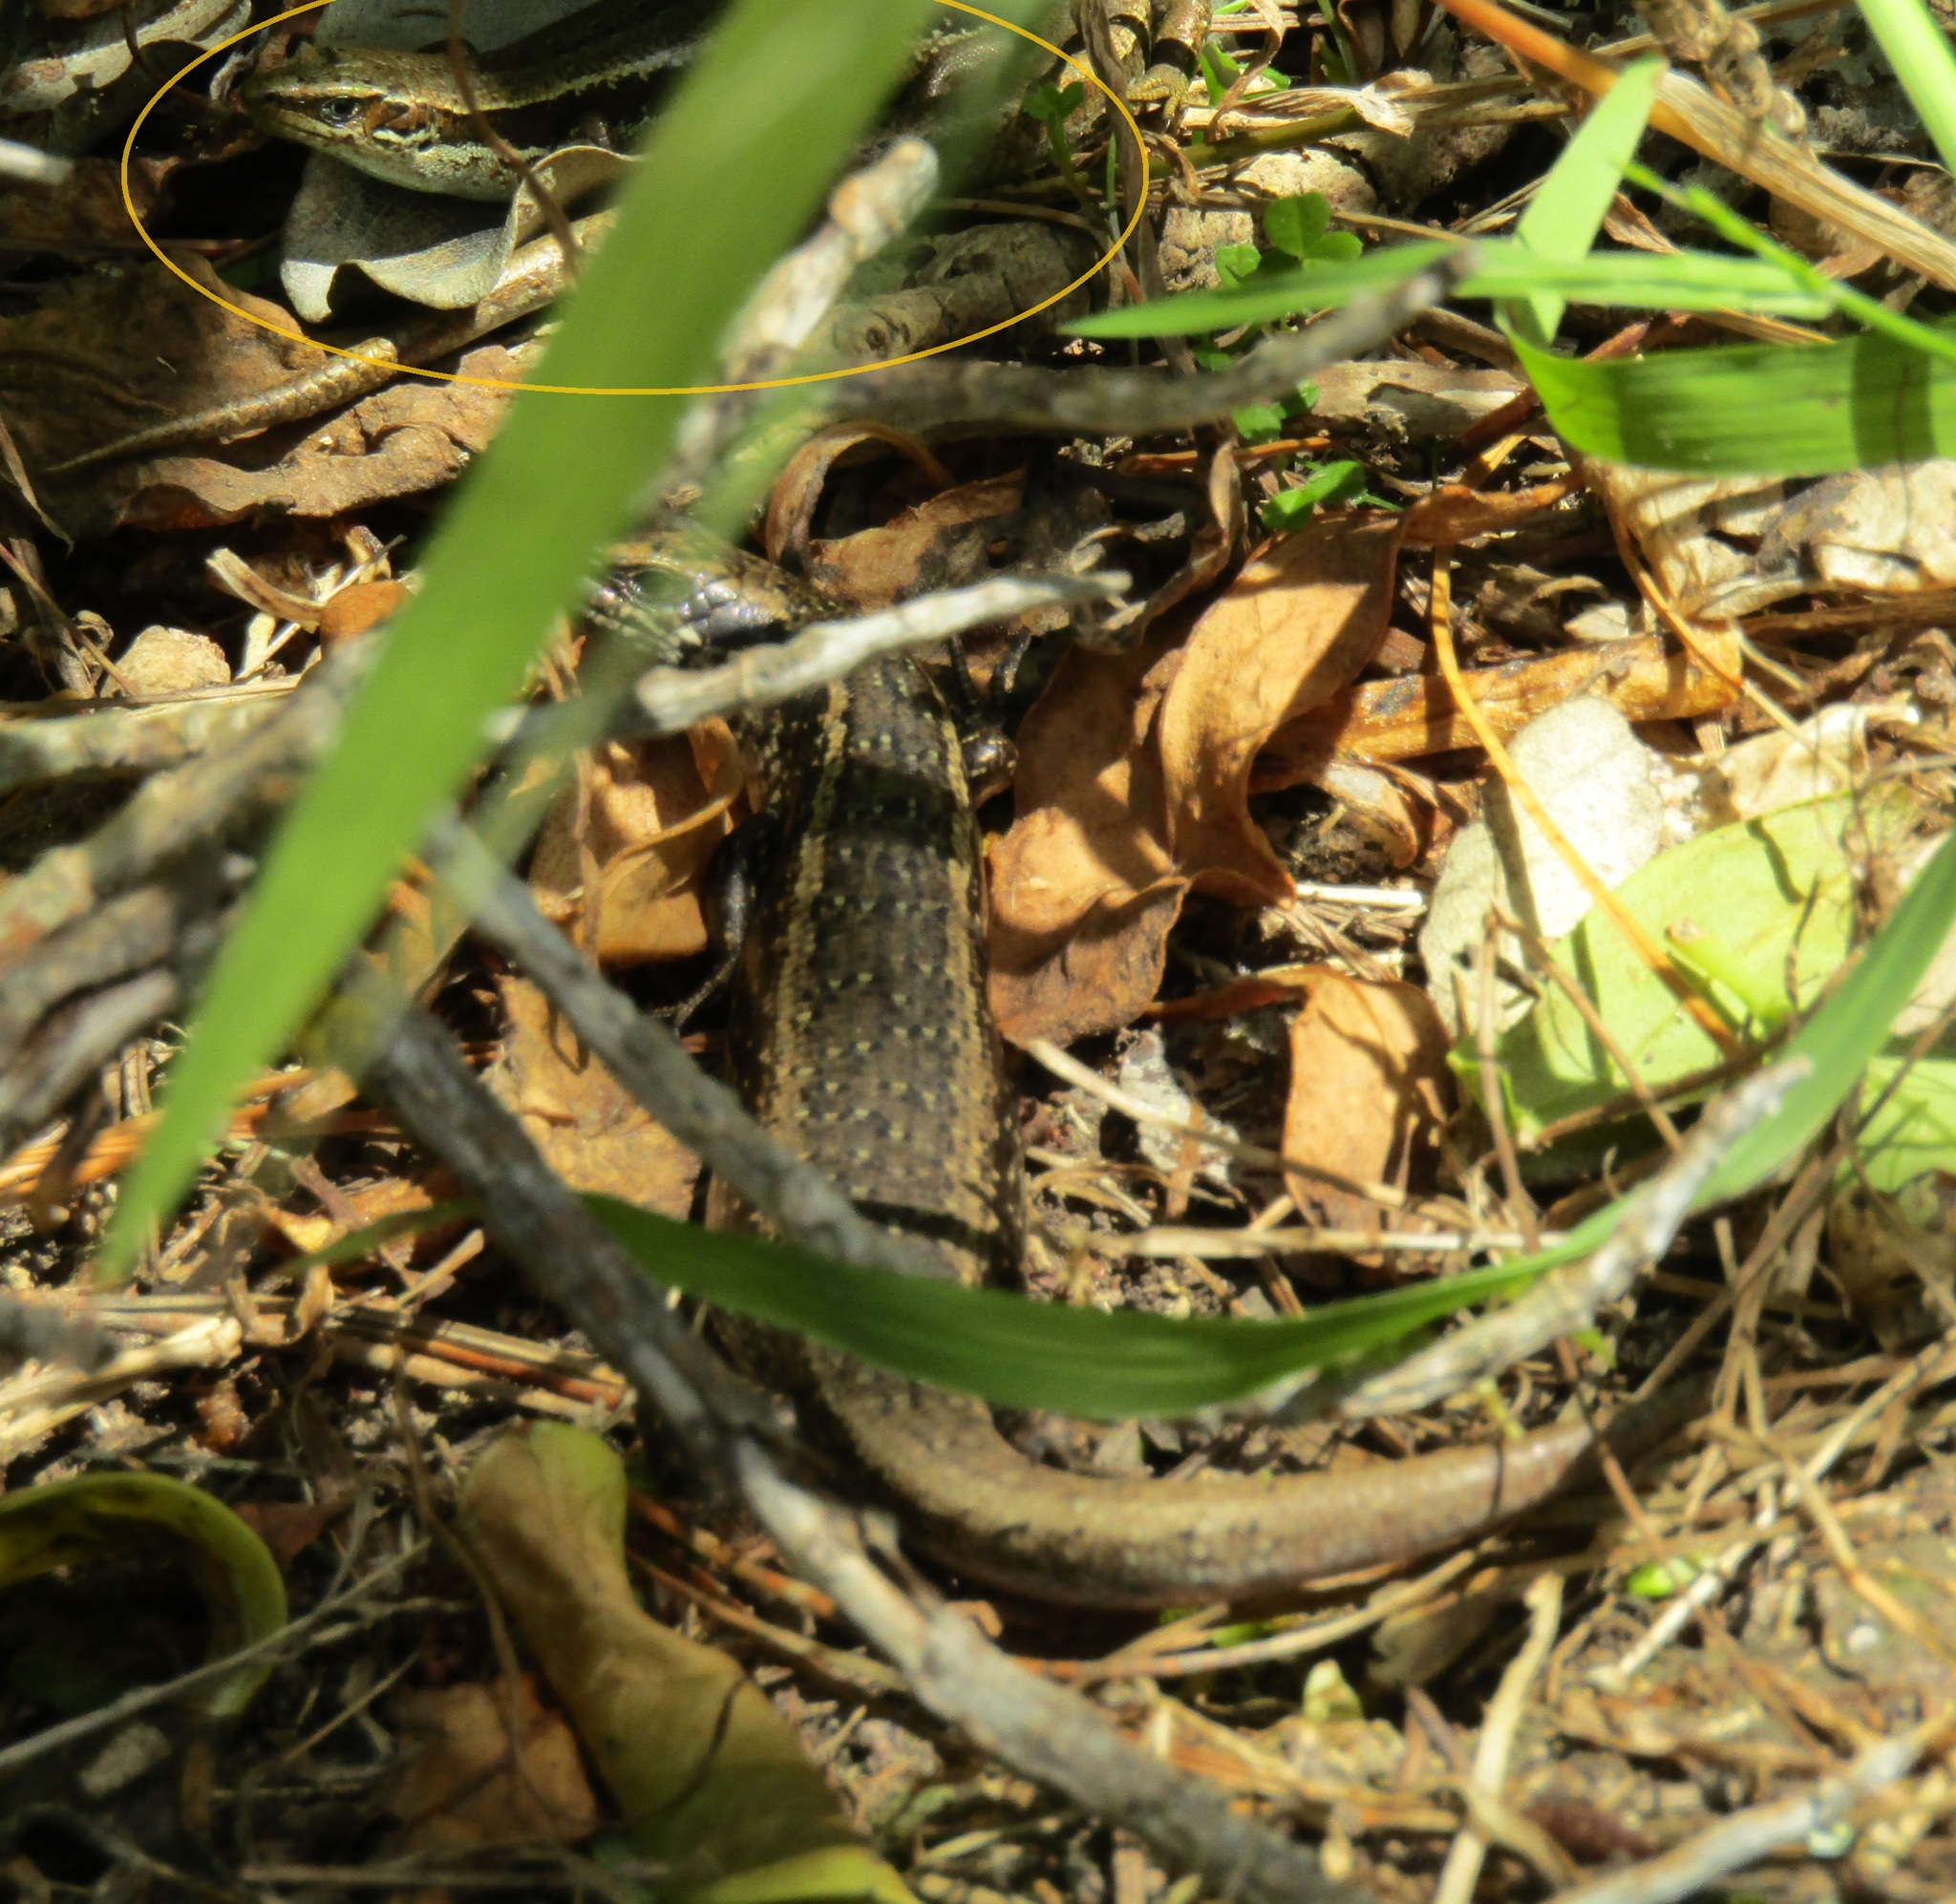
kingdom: Animalia
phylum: Chordata
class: Squamata
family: Scincidae
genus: Oligosoma
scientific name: Oligosoma polychroma
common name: Common new zealand skink
